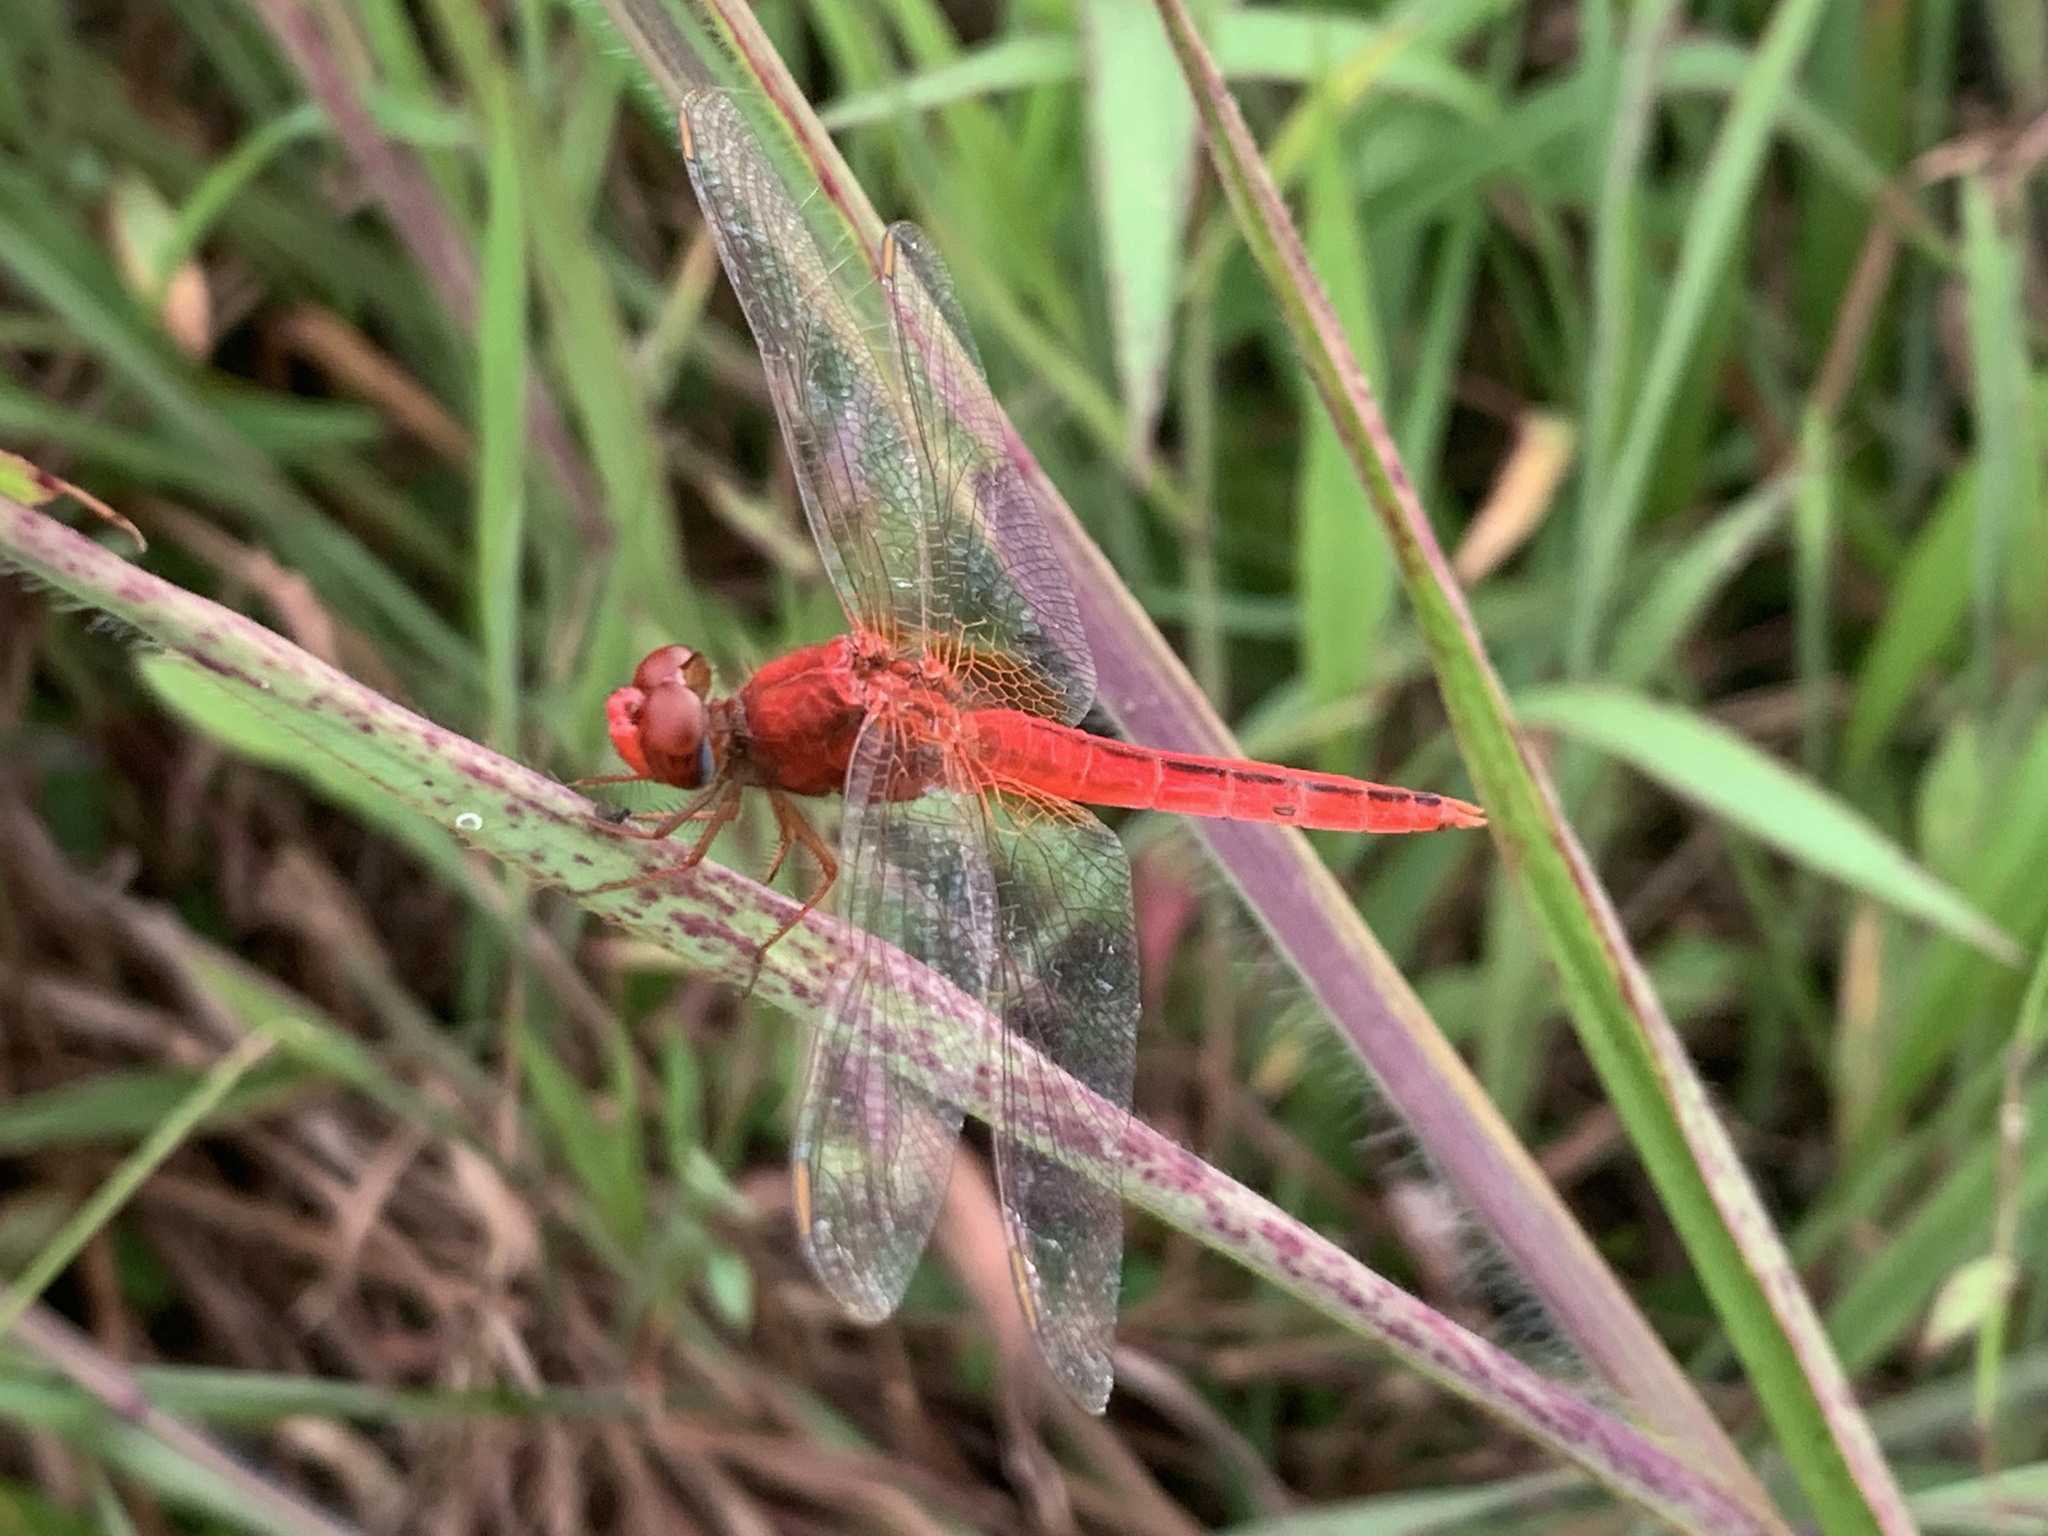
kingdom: Animalia
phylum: Arthropoda
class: Insecta
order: Odonata
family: Libellulidae
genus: Crocothemis
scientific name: Crocothemis servilia
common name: Scarlet skimmer
